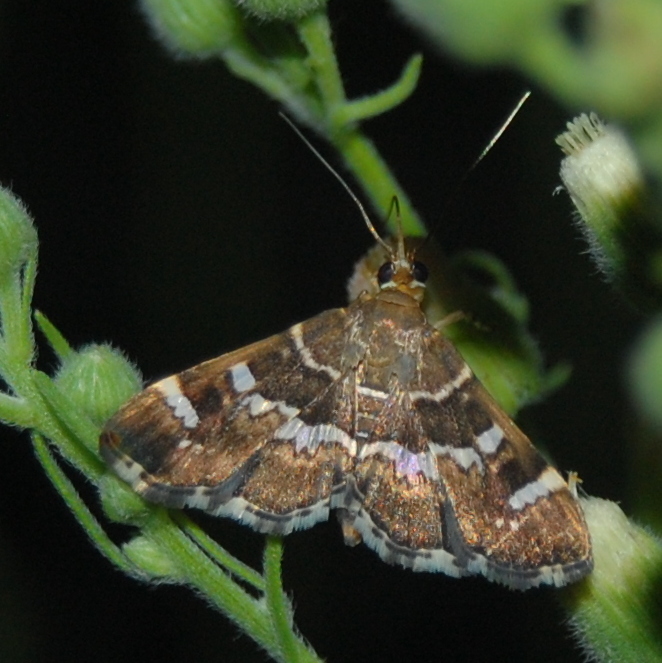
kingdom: Animalia
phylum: Arthropoda
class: Insecta
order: Lepidoptera
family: Crambidae
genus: Hymenia
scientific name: Hymenia perspectalis
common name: Spotted beet webworm
